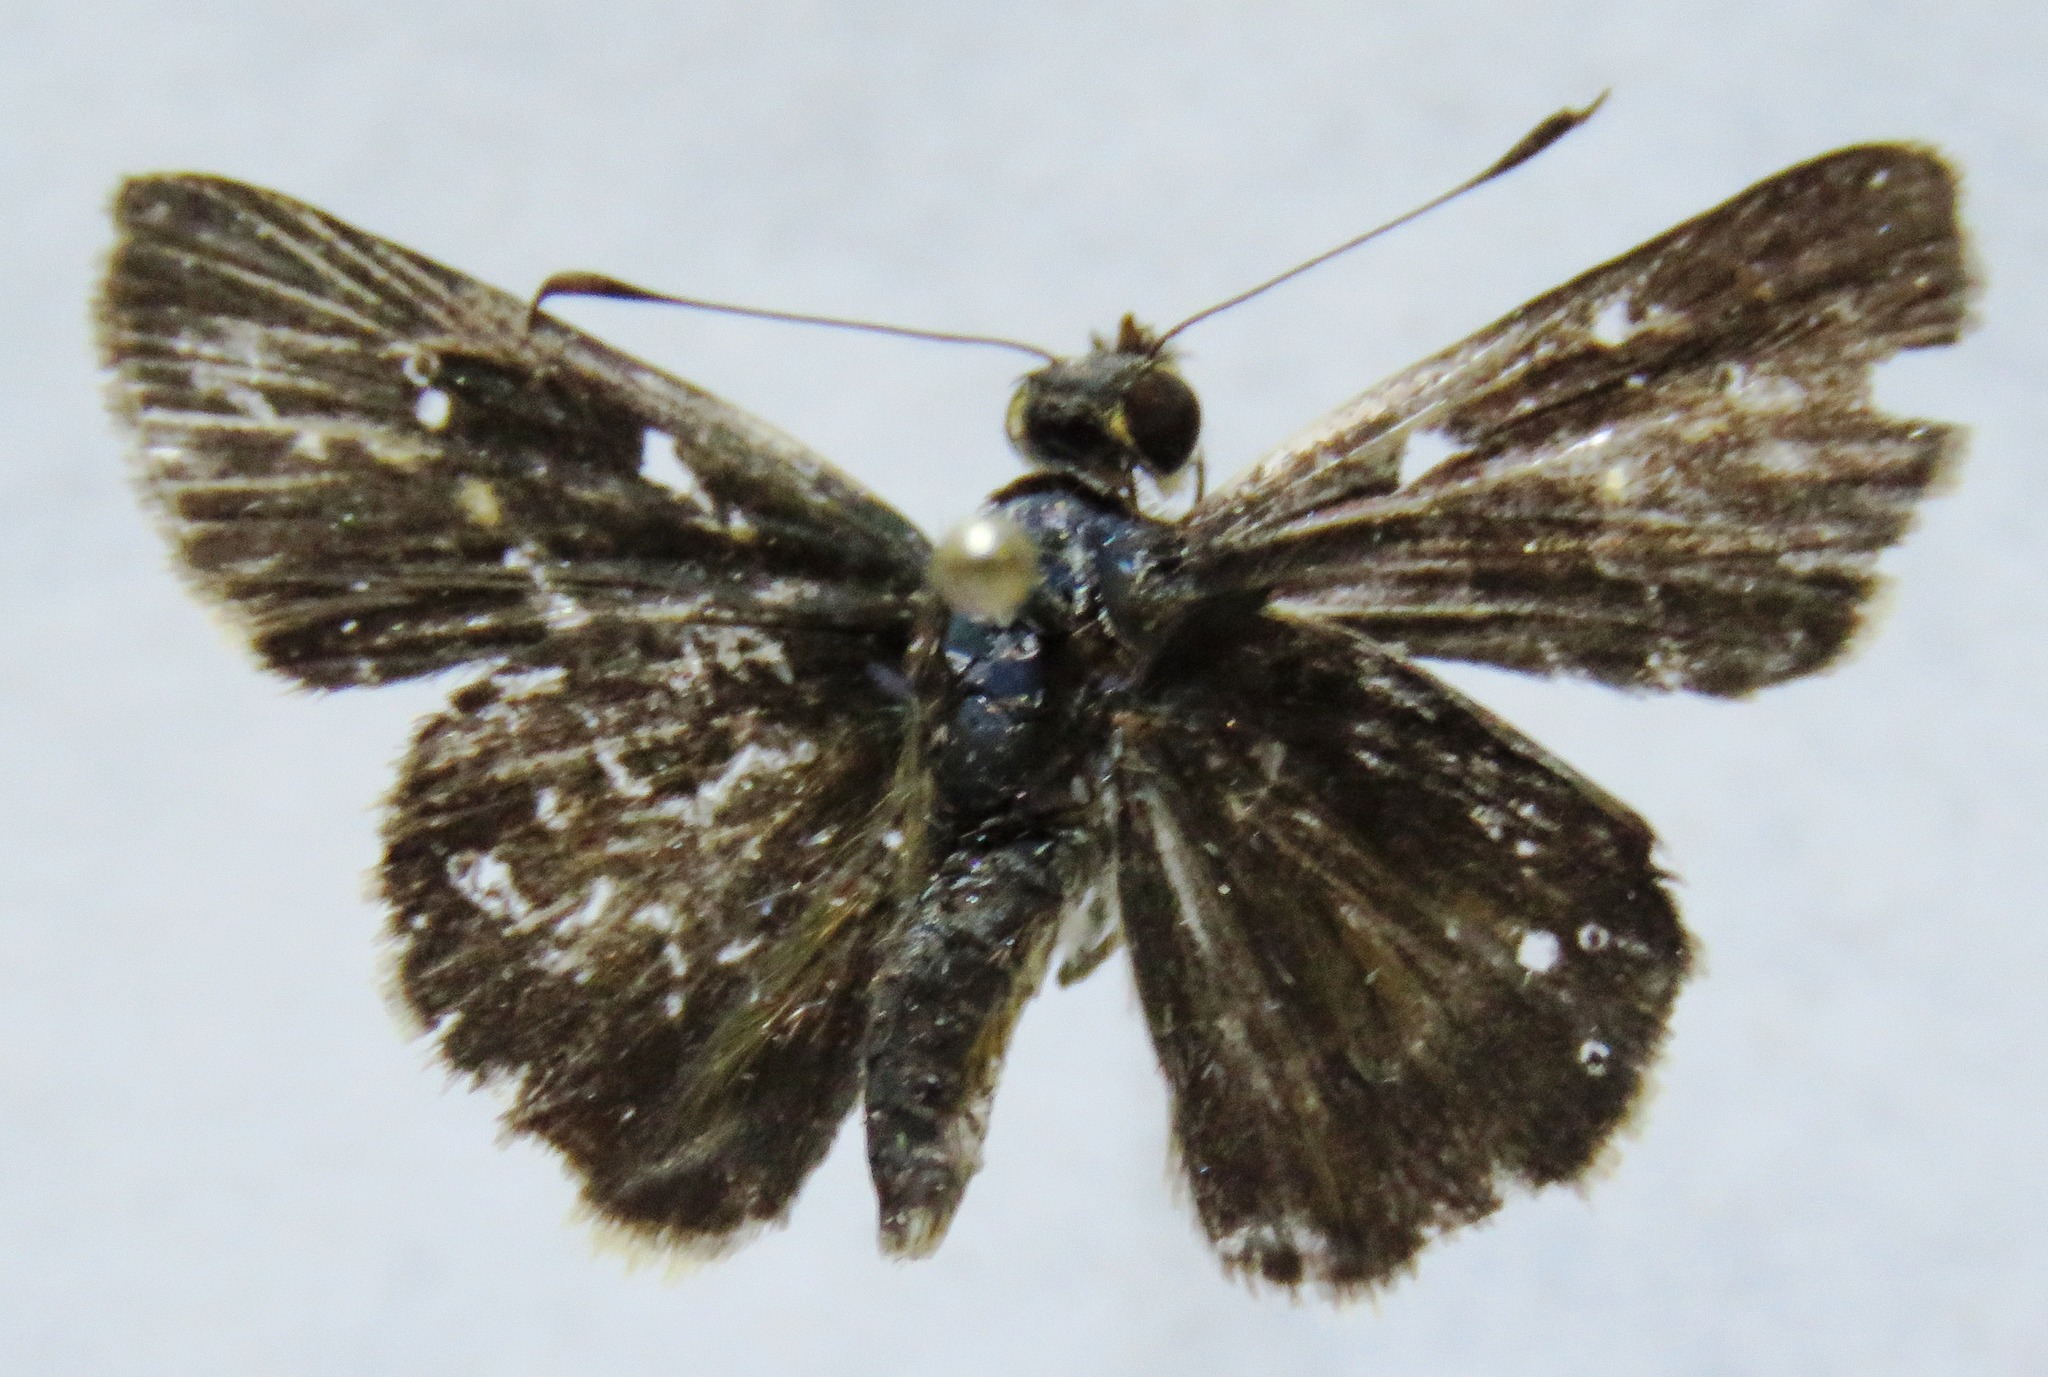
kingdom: Animalia
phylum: Arthropoda
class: Insecta
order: Lepidoptera
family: Hesperiidae
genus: Vehilius
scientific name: Vehilius stictomenes
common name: Pasture skipper
